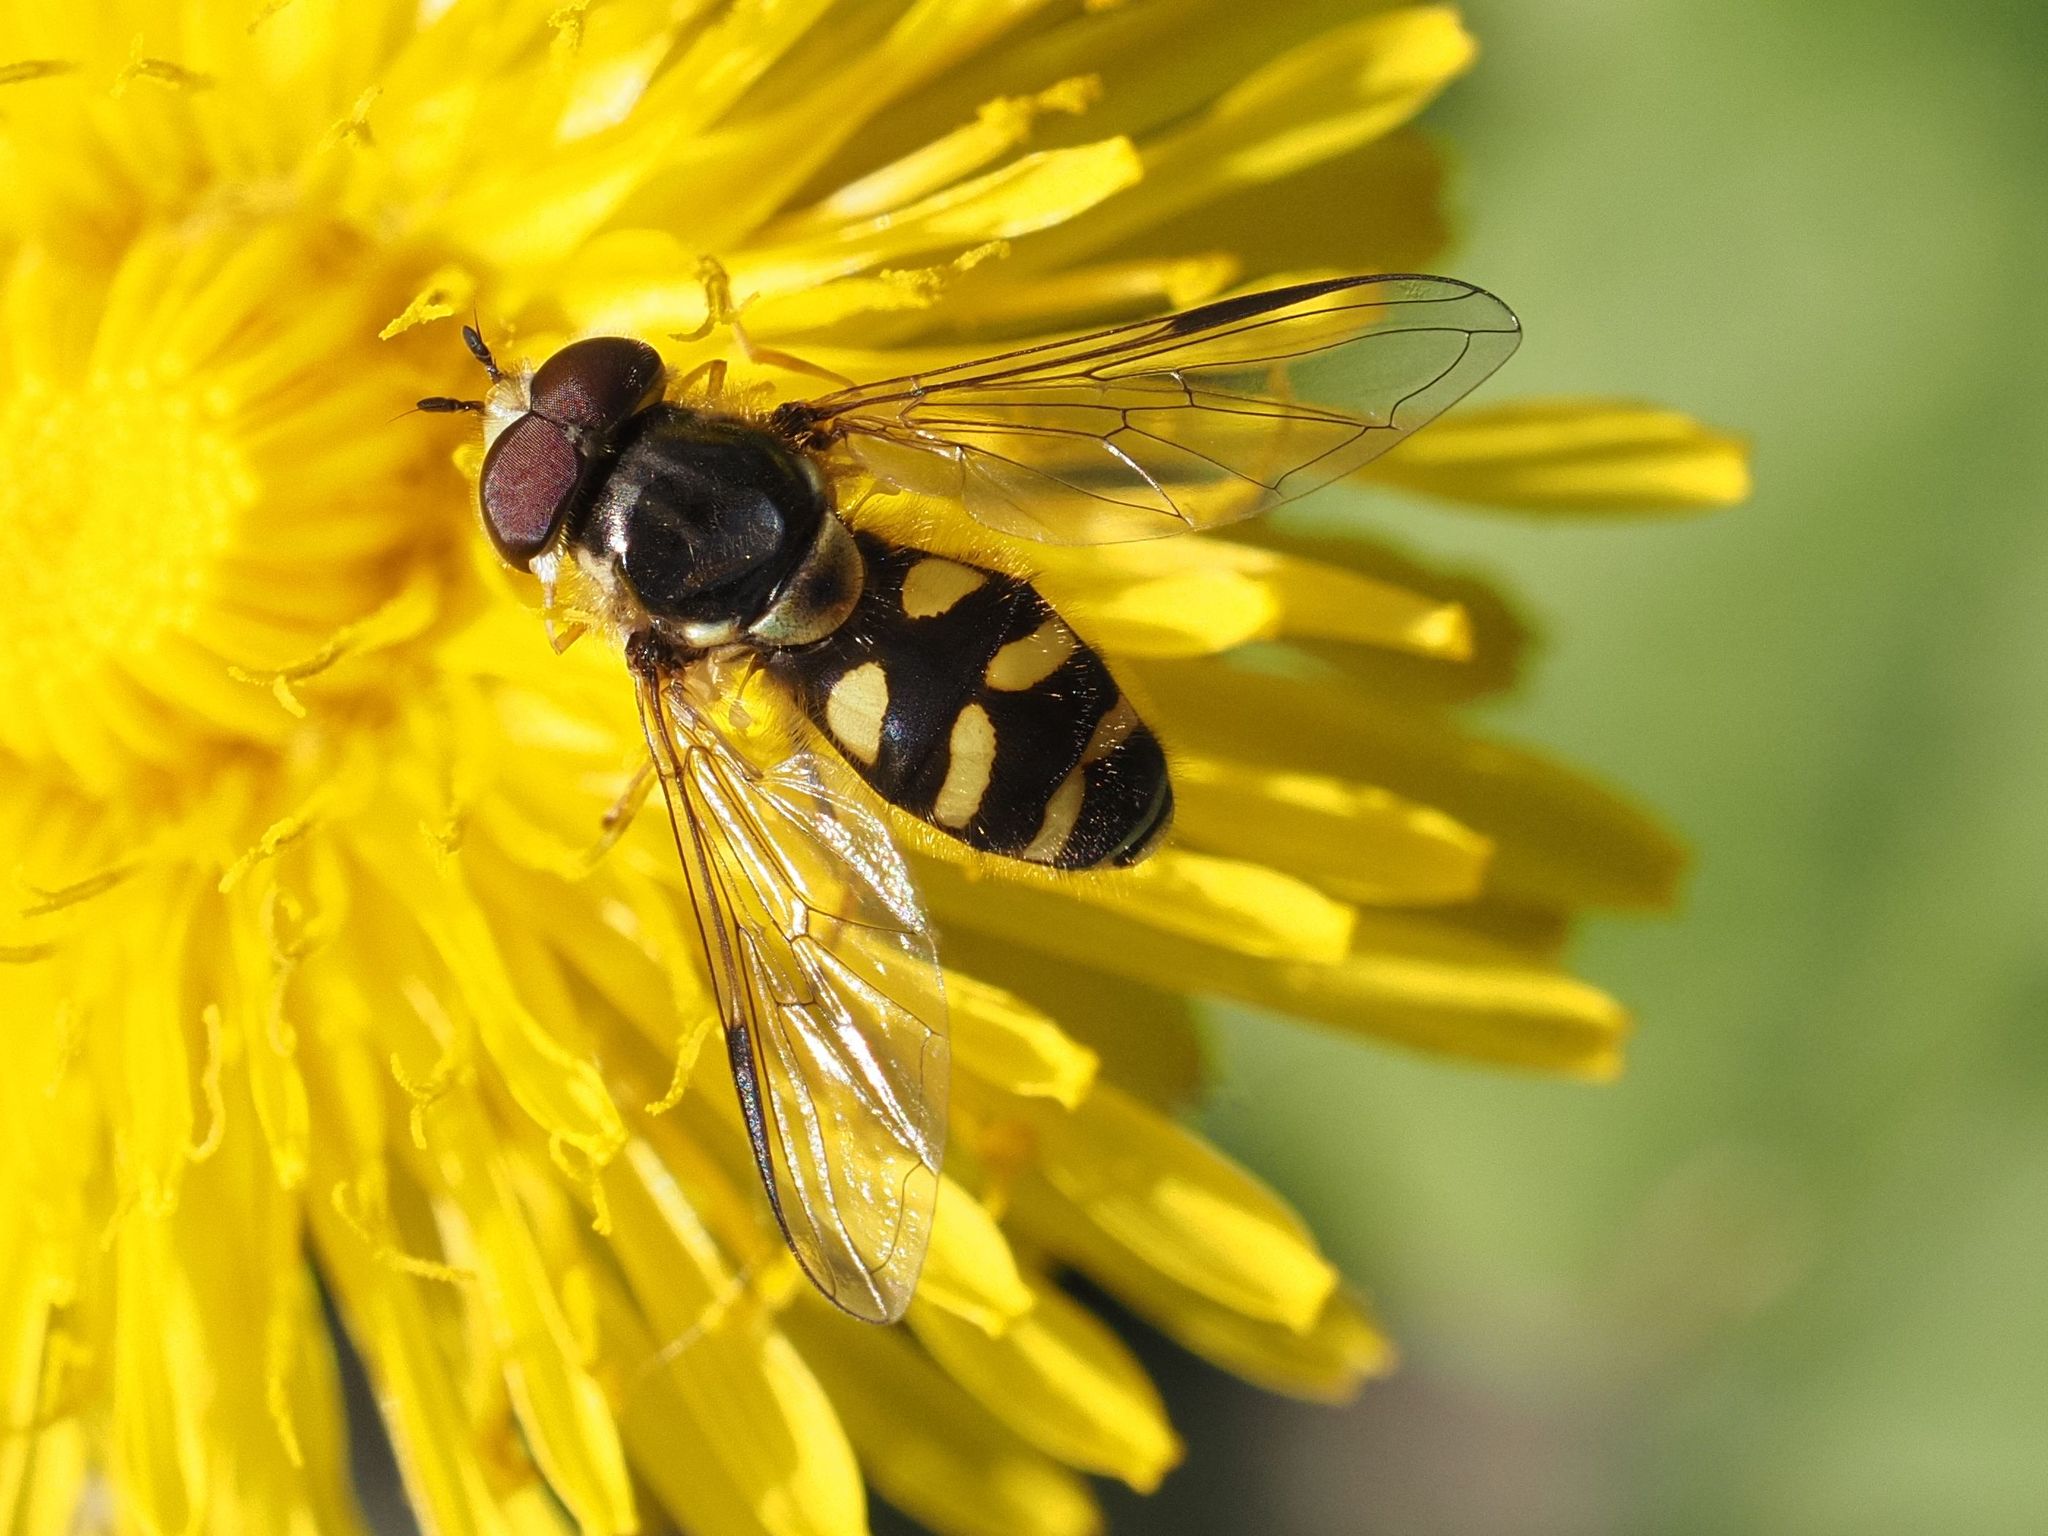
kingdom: Animalia
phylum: Arthropoda
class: Insecta
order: Diptera
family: Syrphidae
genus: Dasysyrphus
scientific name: Dasysyrphus albostriatus
